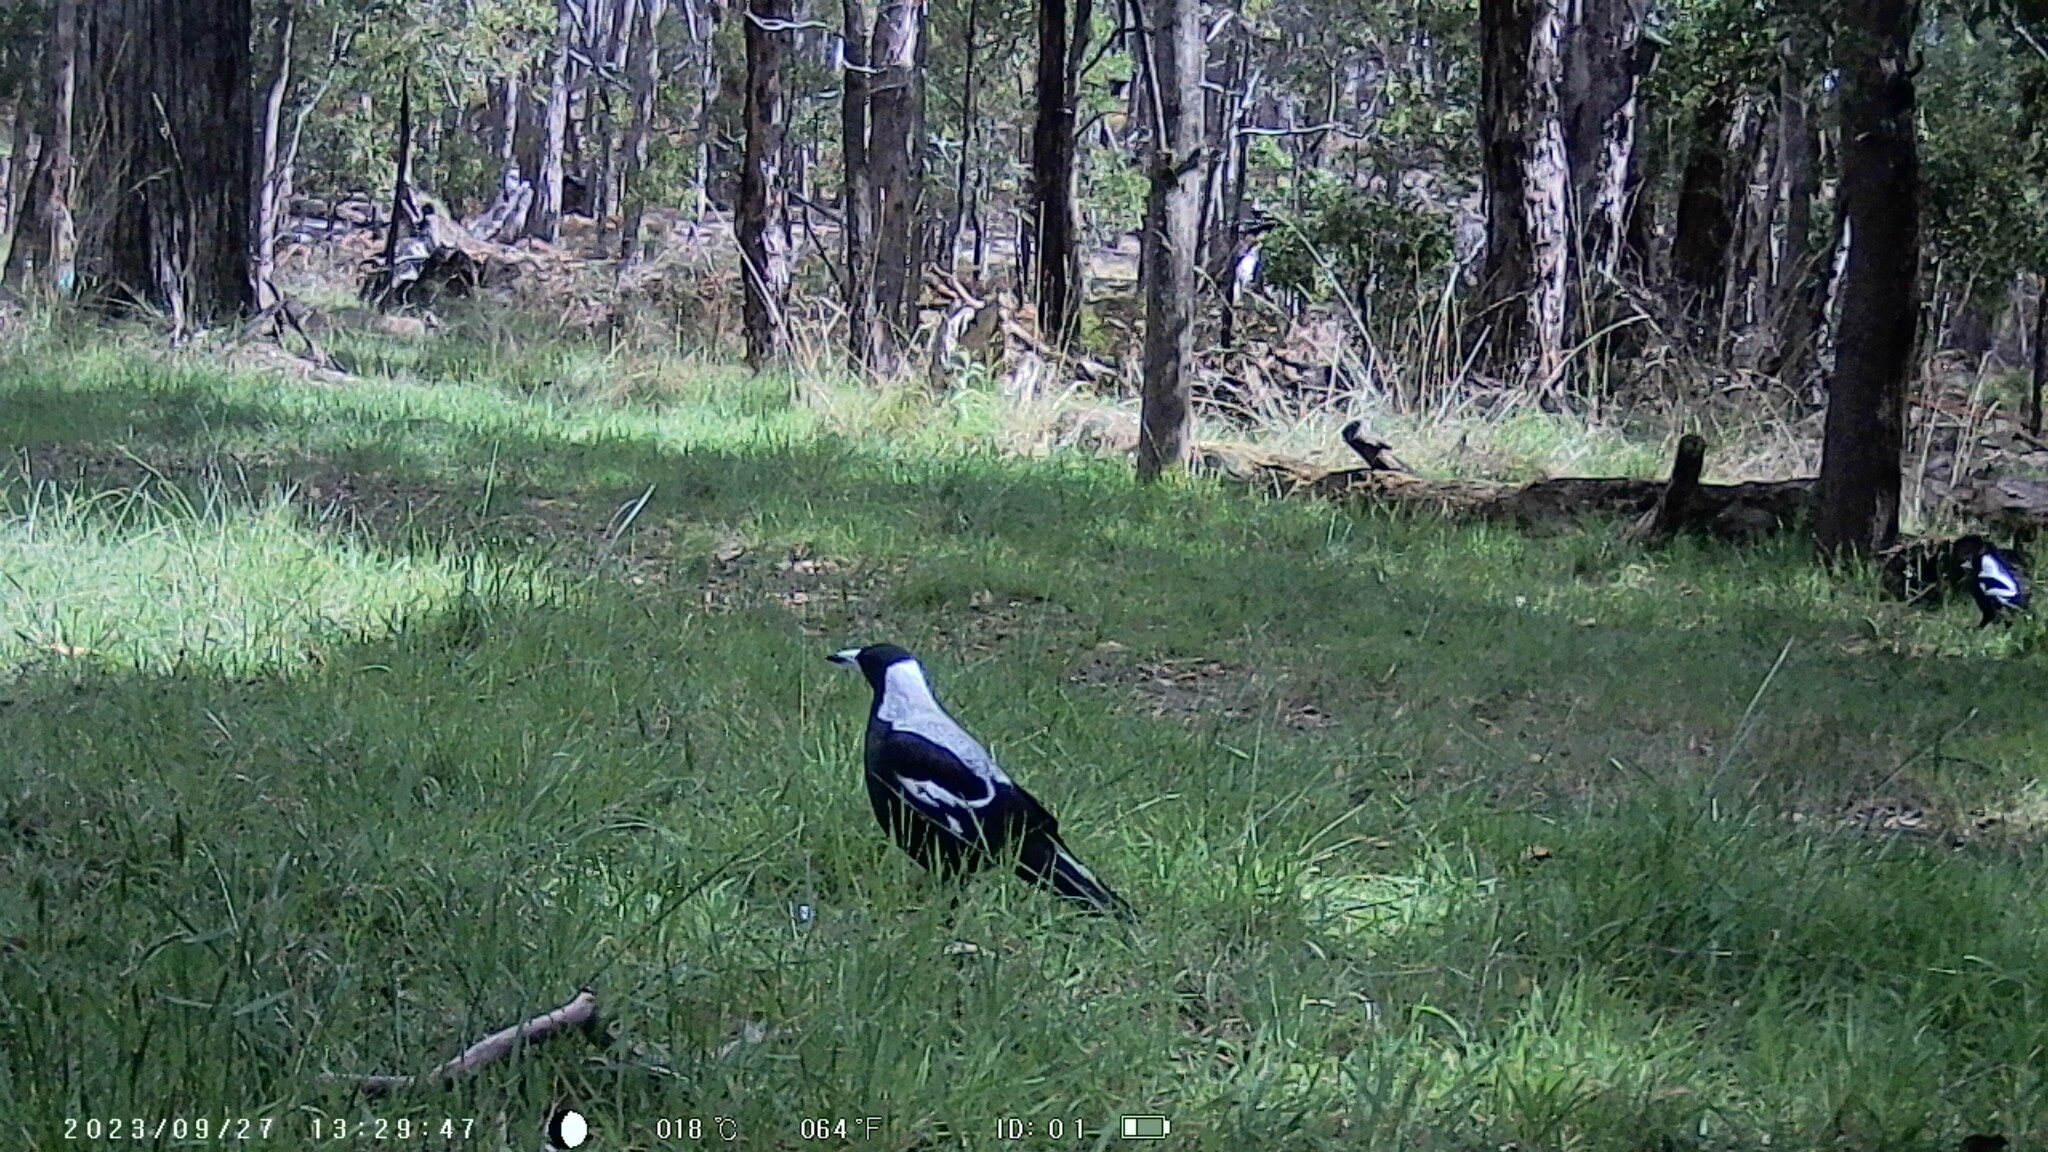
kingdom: Animalia
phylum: Chordata
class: Aves
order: Passeriformes
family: Cracticidae
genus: Gymnorhina
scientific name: Gymnorhina tibicen
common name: Australian magpie
